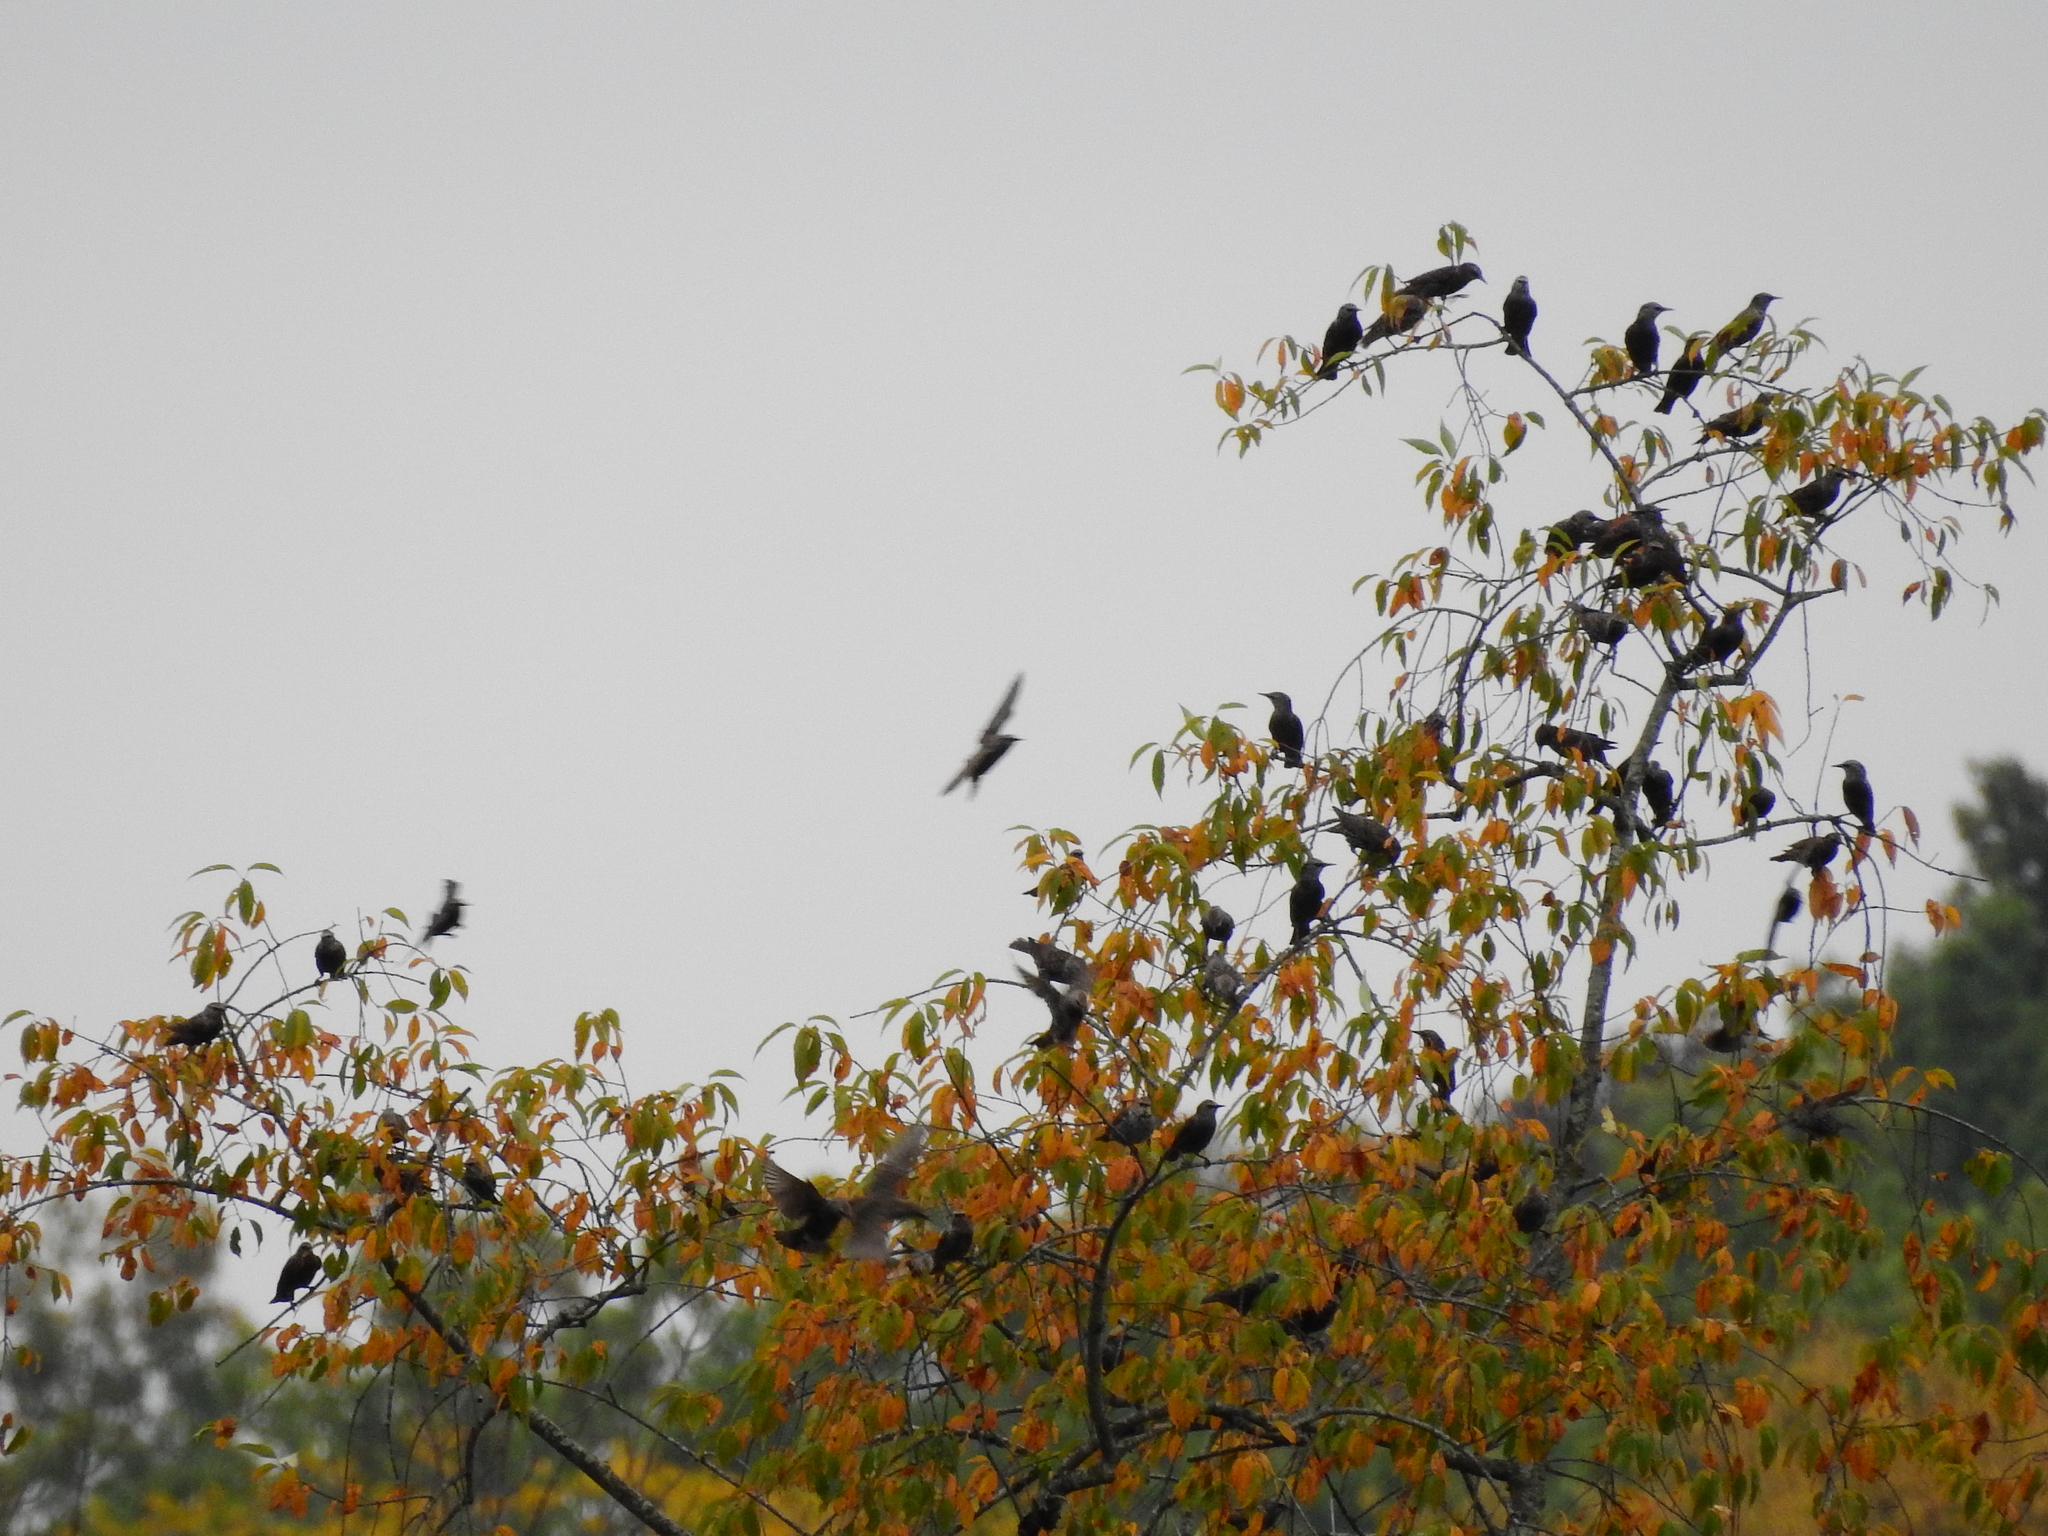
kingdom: Animalia
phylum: Chordata
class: Aves
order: Passeriformes
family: Sturnidae
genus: Sturnus
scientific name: Sturnus vulgaris
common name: Common starling
